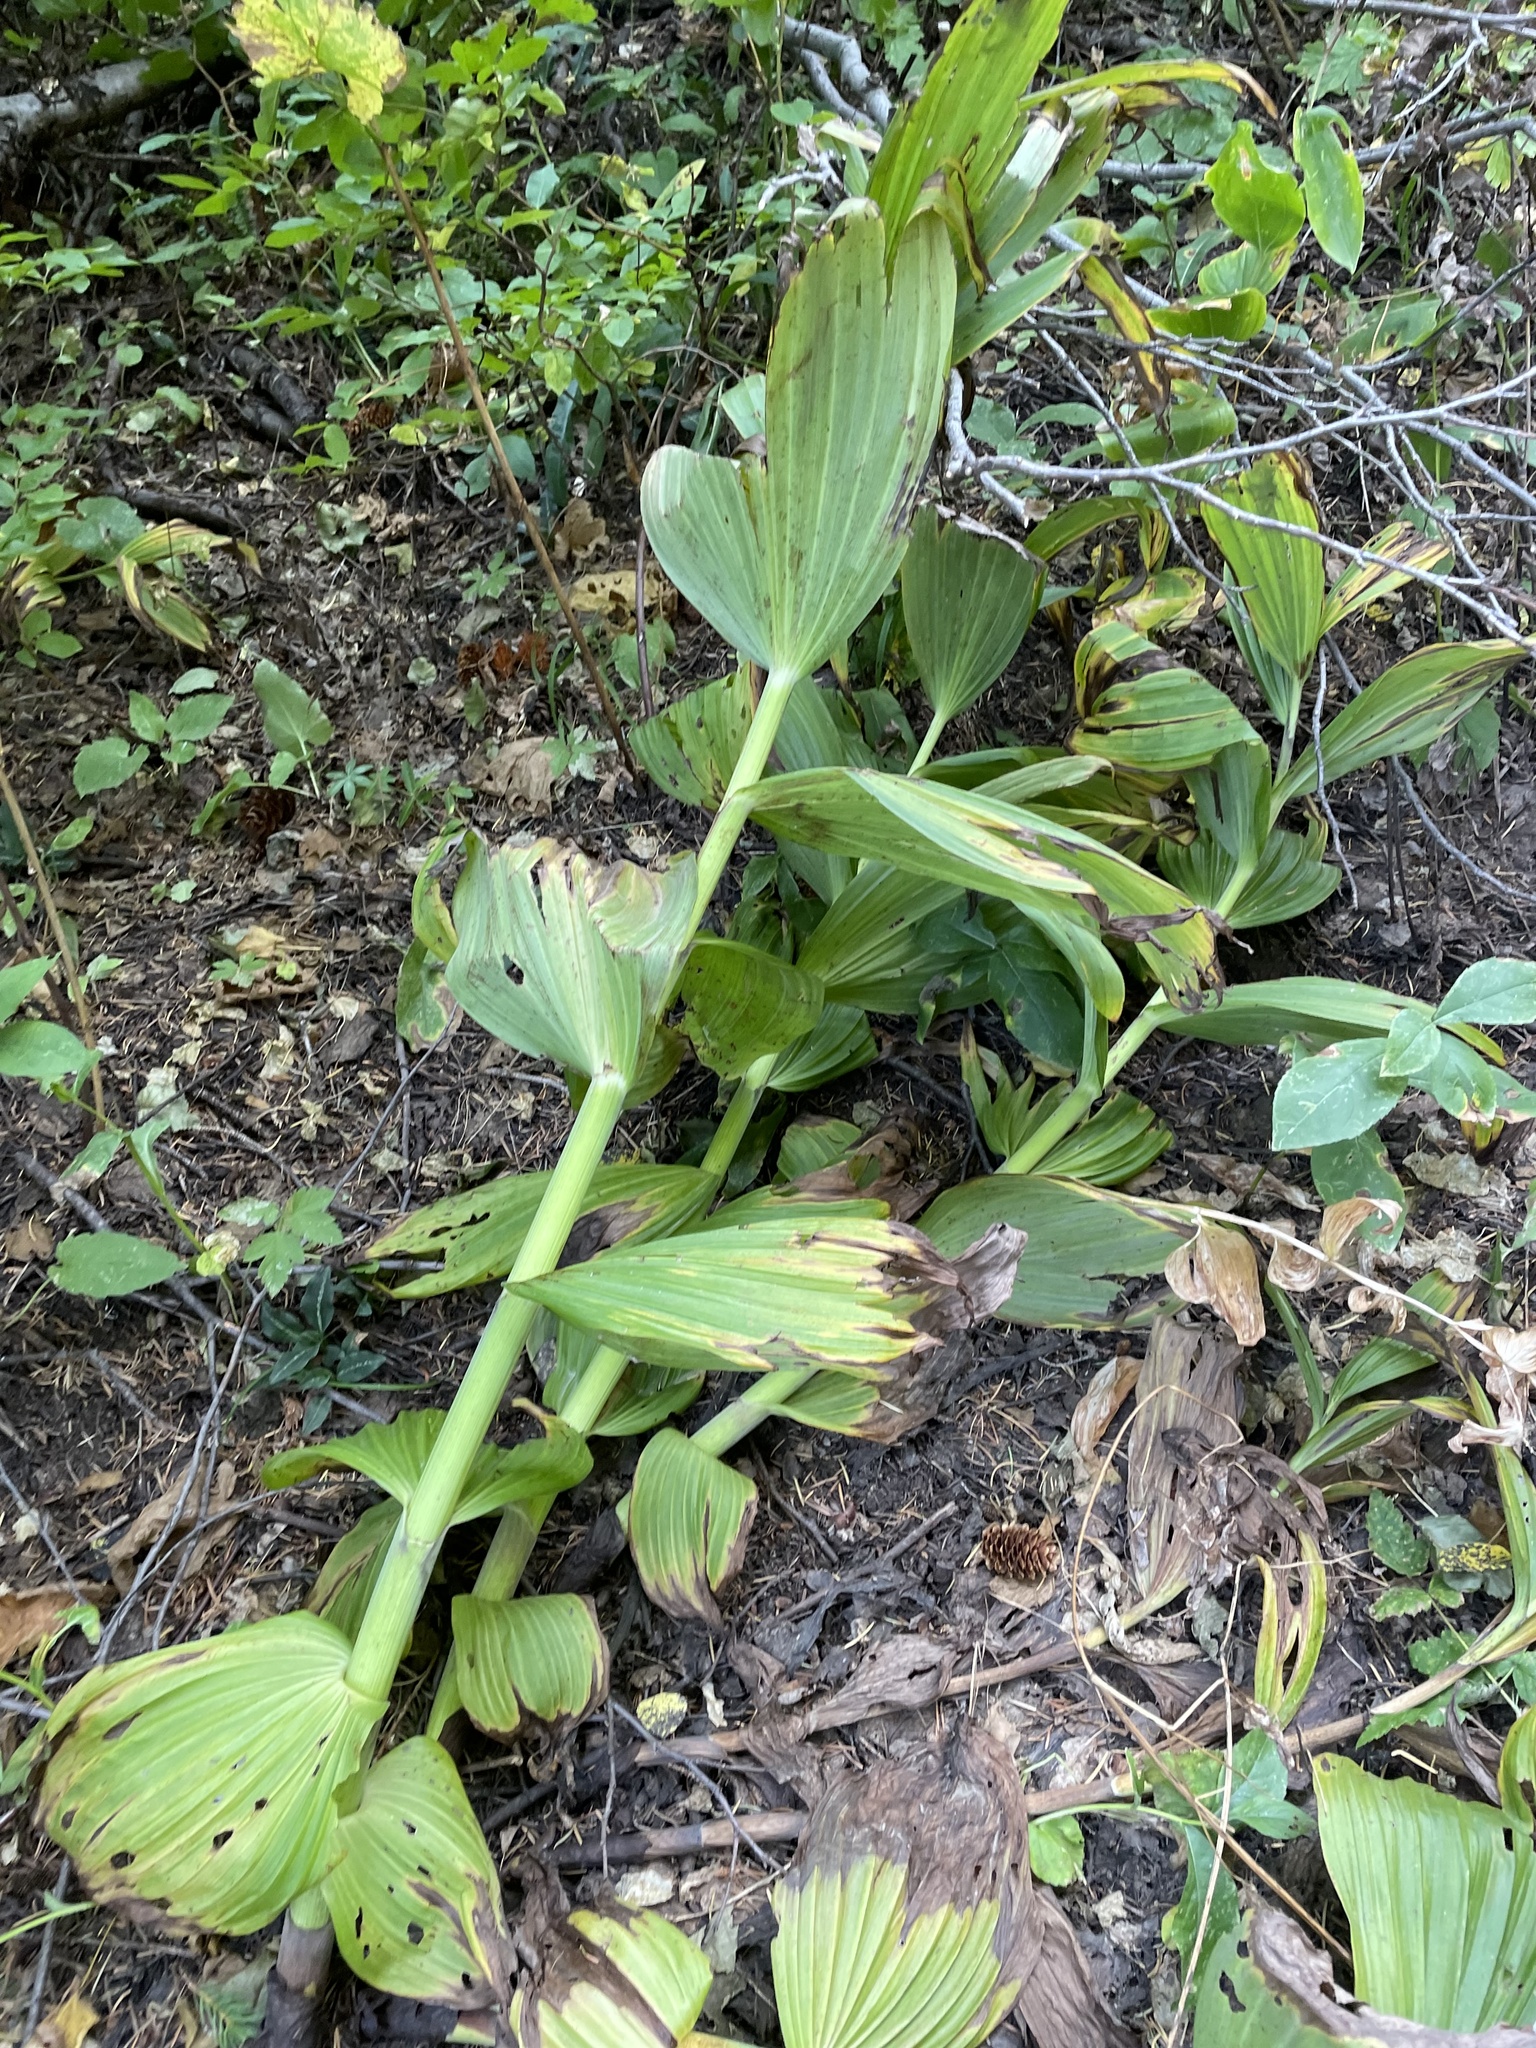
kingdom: Plantae
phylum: Tracheophyta
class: Liliopsida
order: Liliales
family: Melanthiaceae
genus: Veratrum
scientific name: Veratrum viride
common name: American false hellebore
